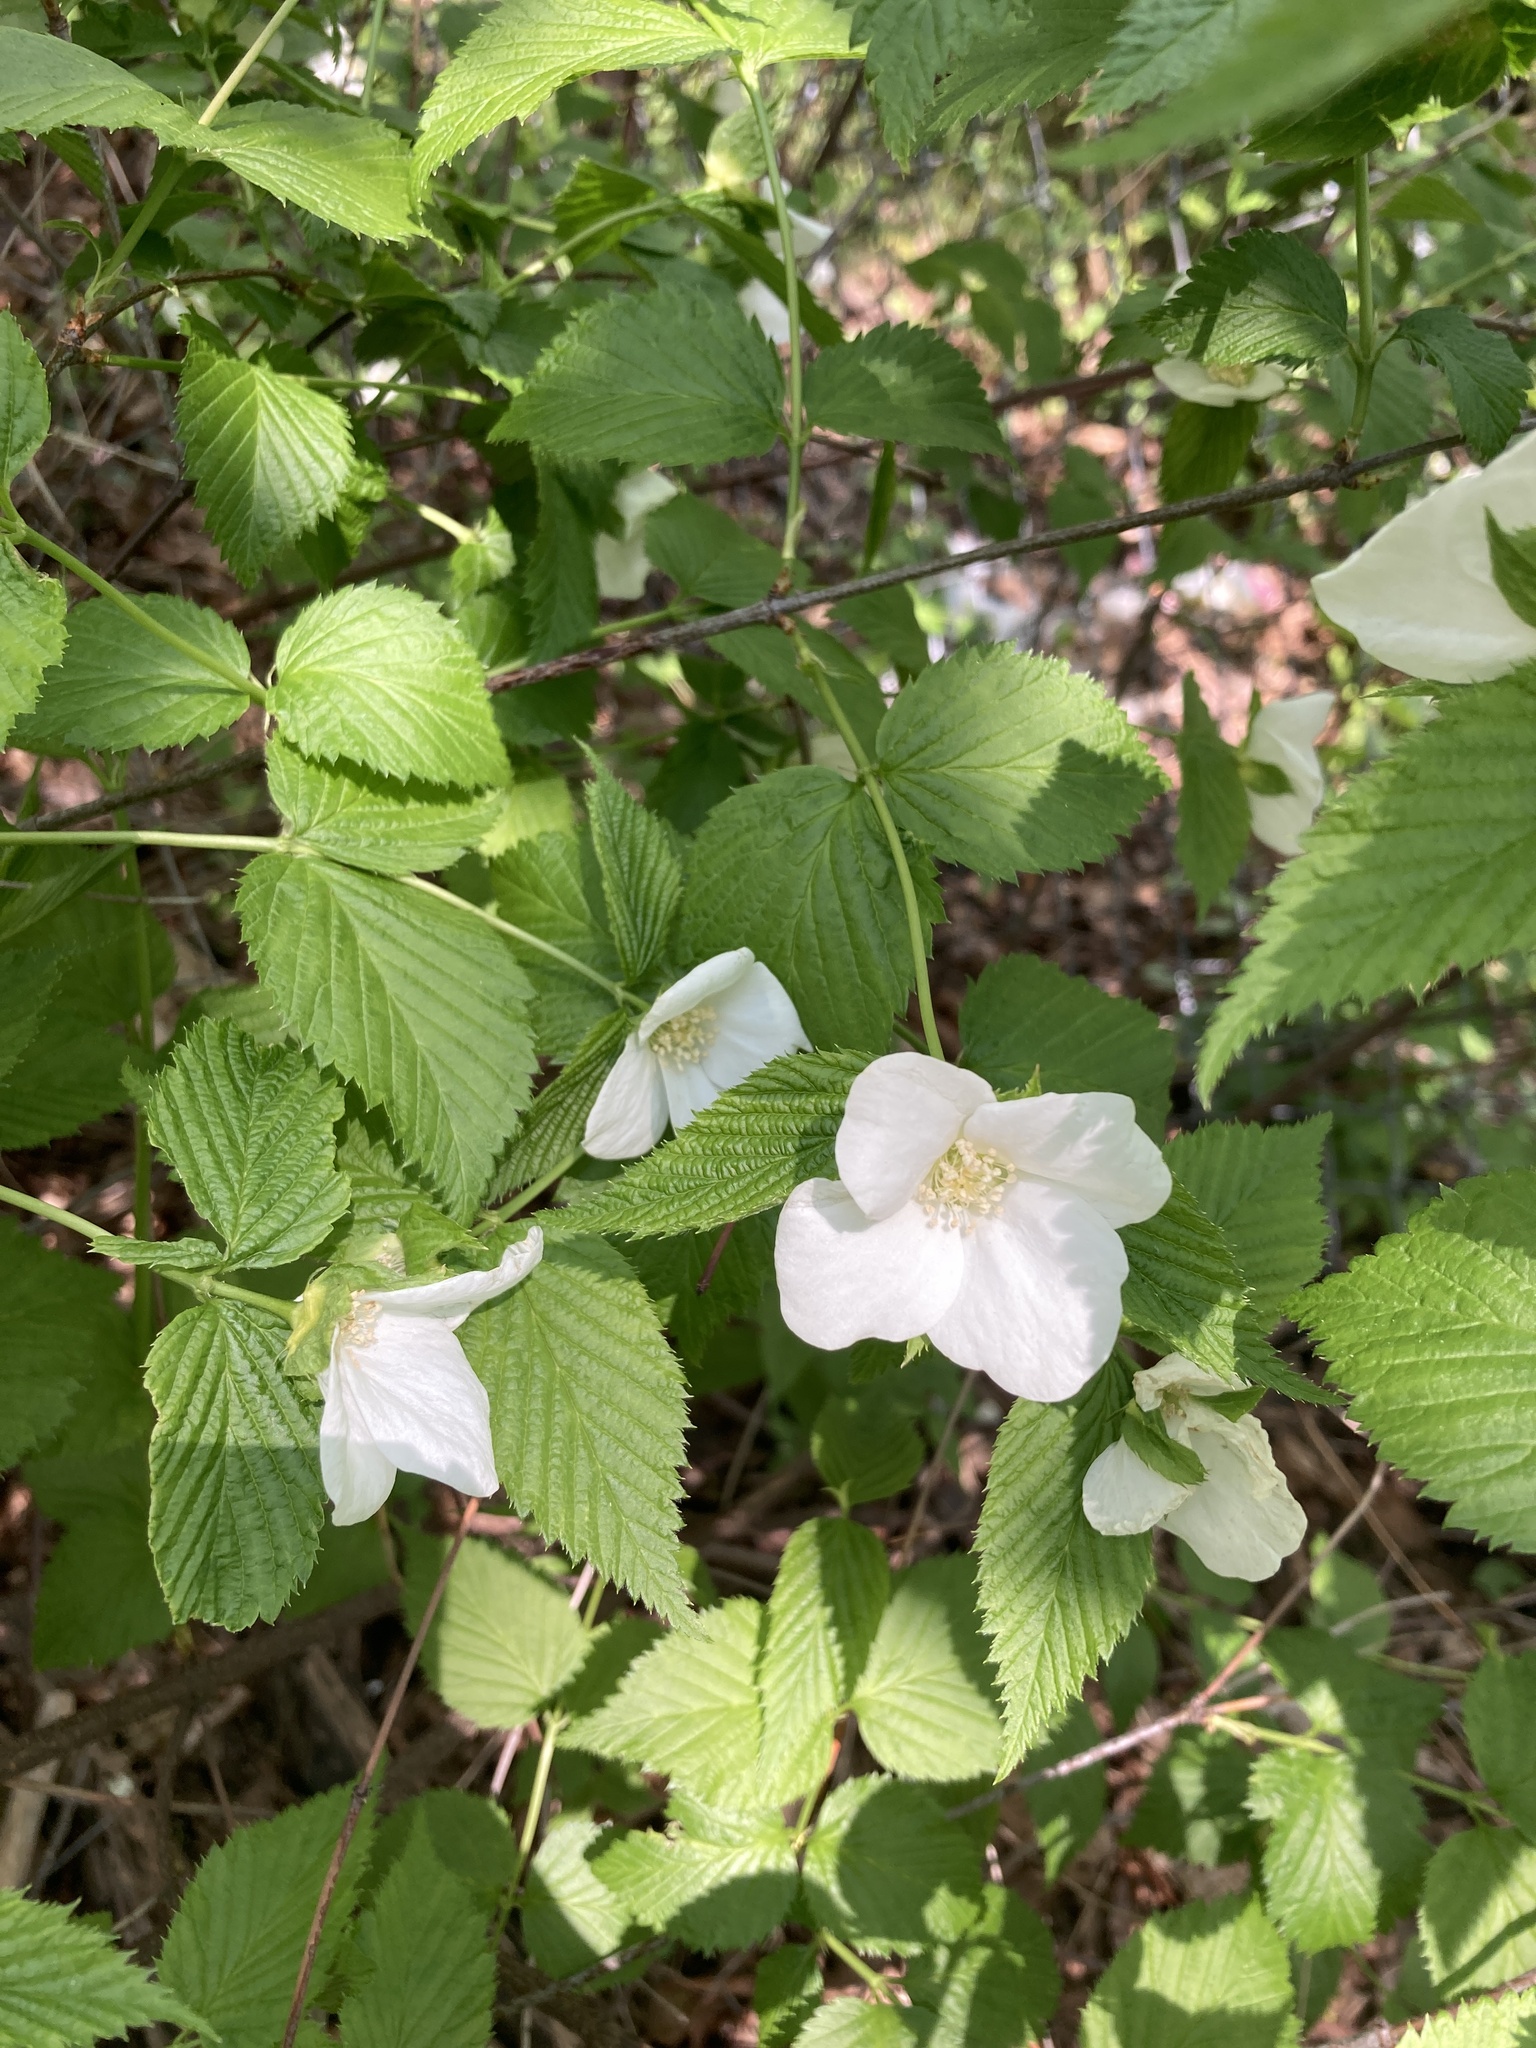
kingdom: Plantae
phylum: Tracheophyta
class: Magnoliopsida
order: Rosales
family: Rosaceae
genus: Rhodotypos
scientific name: Rhodotypos scandens
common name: Jetbead
